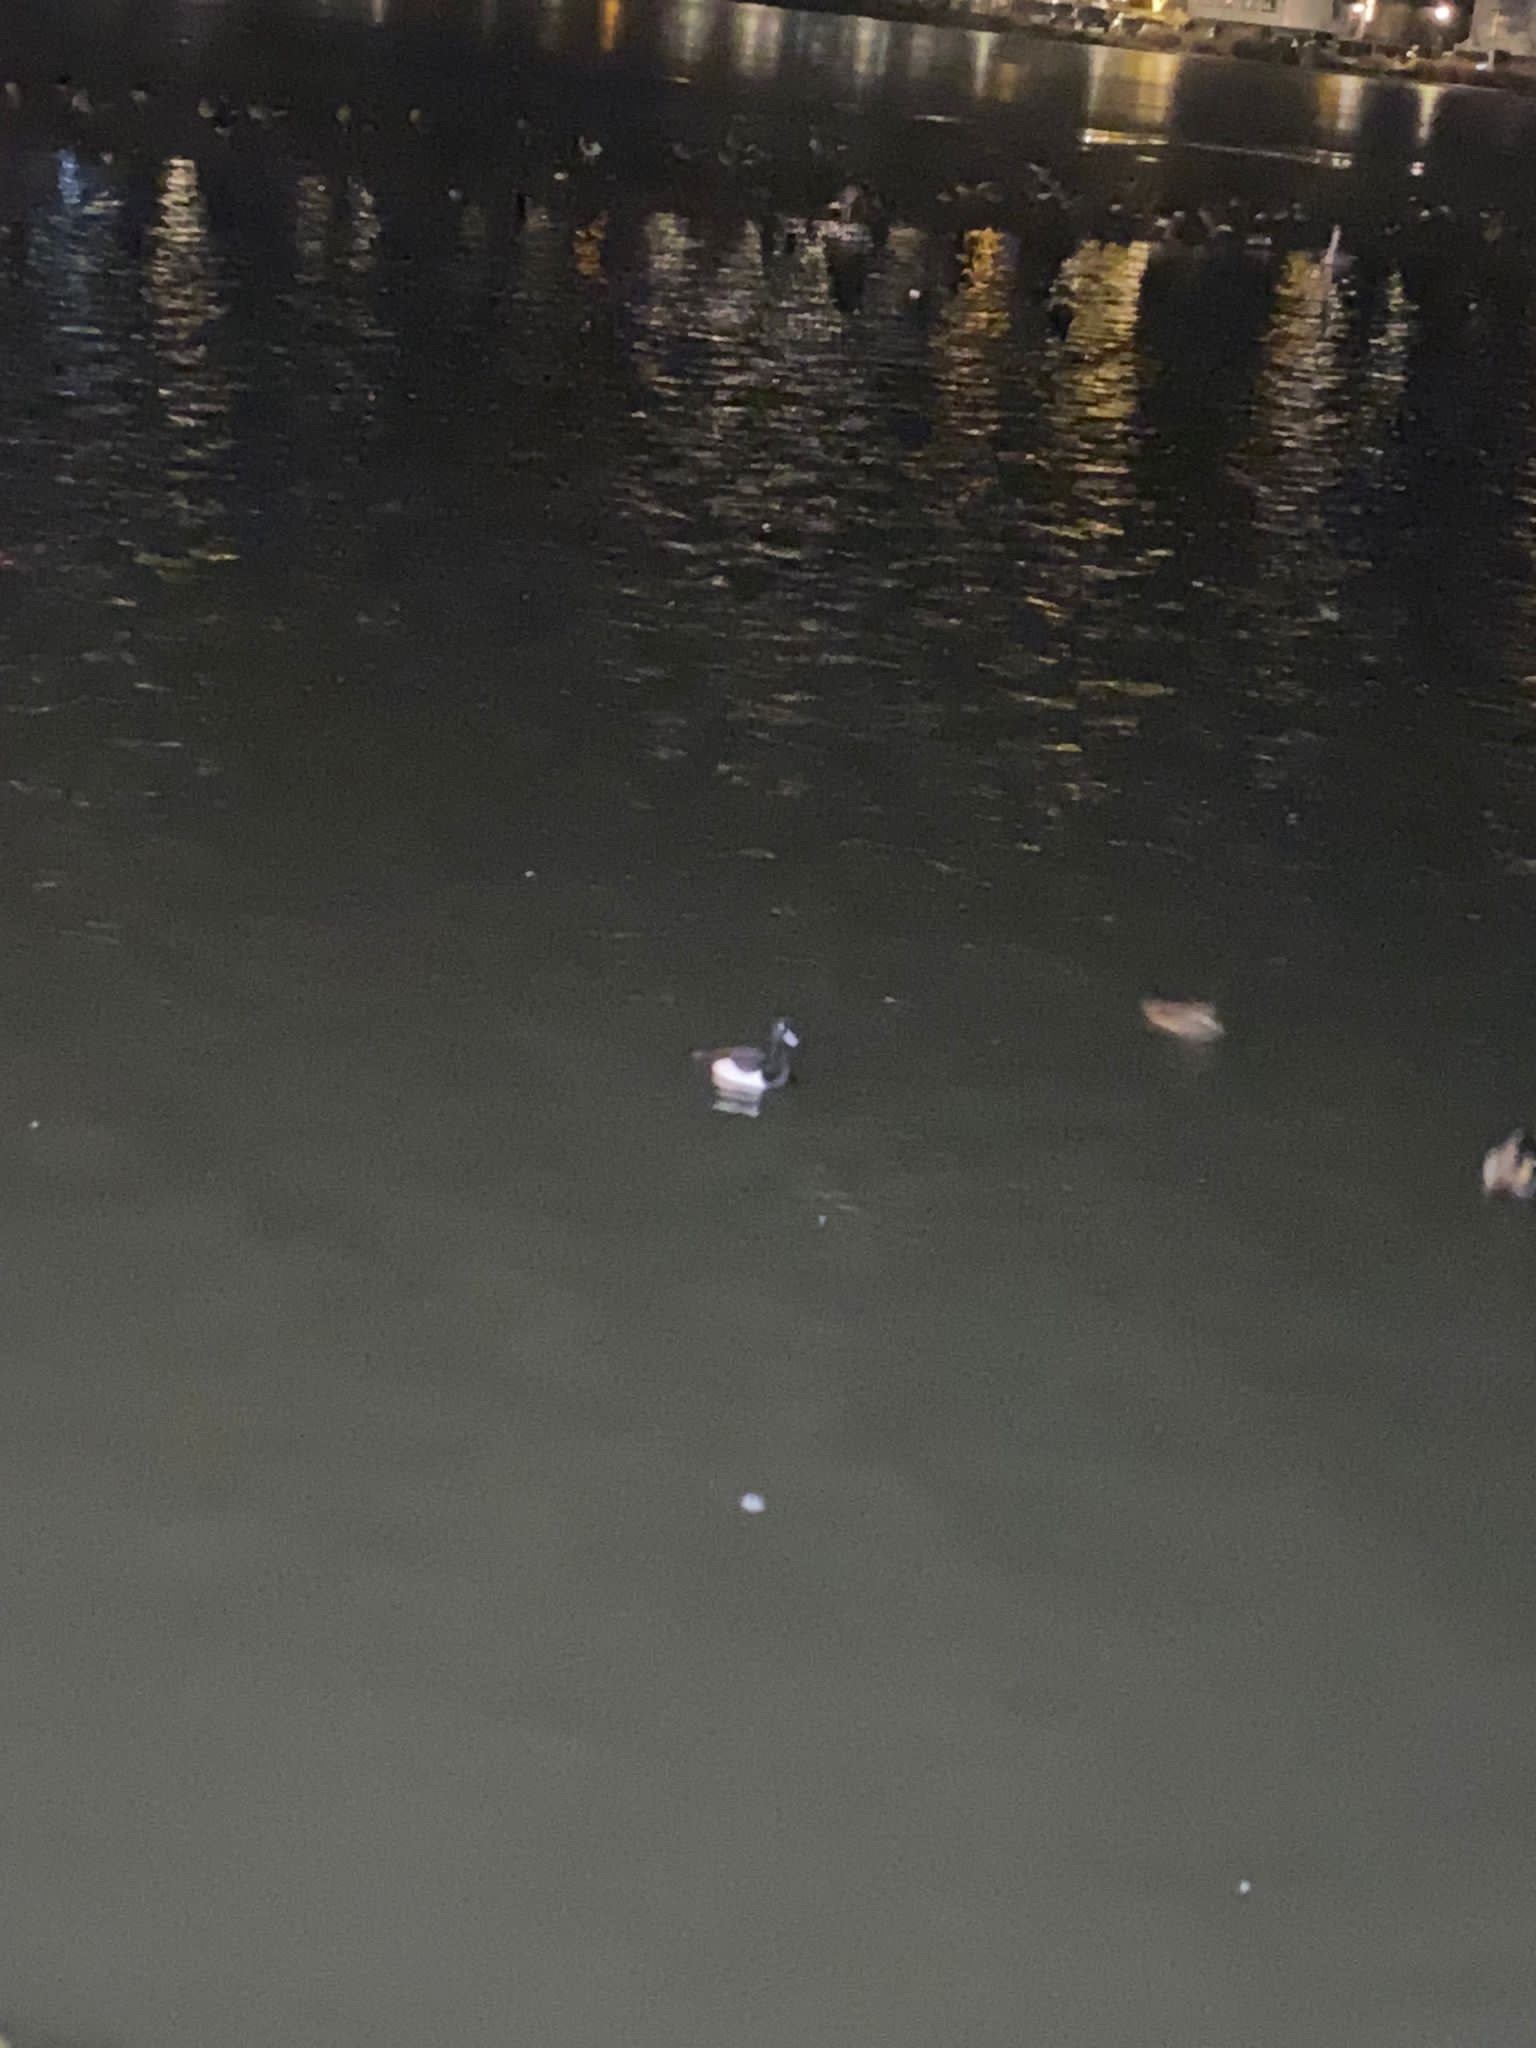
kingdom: Animalia
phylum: Chordata
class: Aves
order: Anseriformes
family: Anatidae
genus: Aythya
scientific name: Aythya fuligula
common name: Tufted duck
